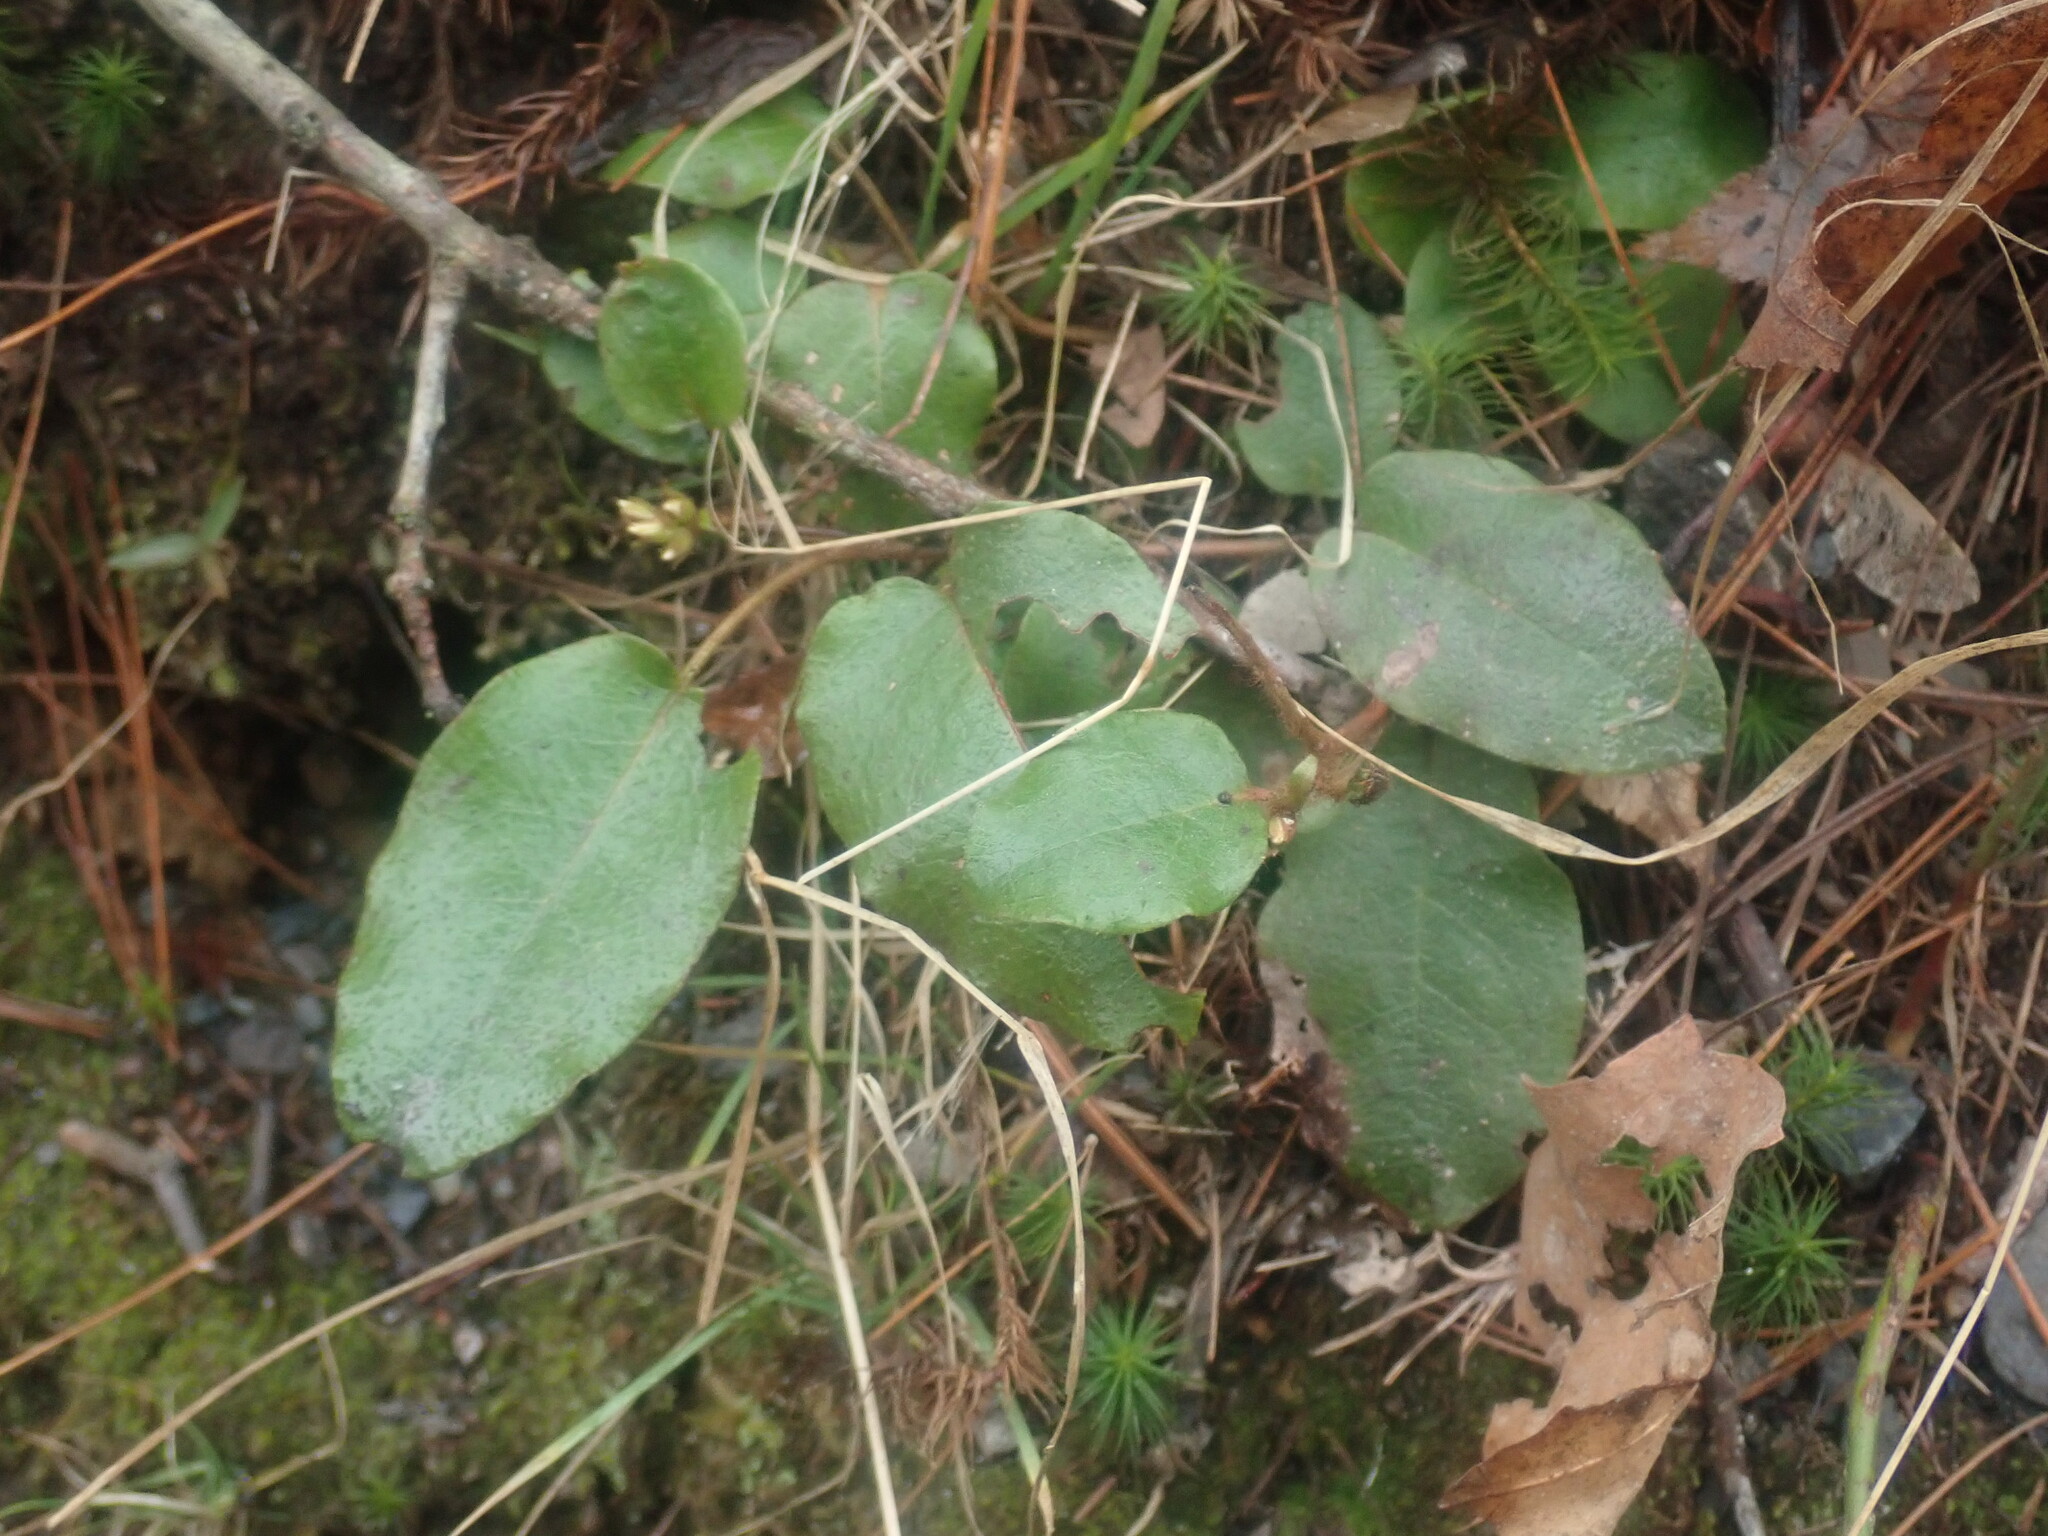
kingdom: Plantae
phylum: Tracheophyta
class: Magnoliopsida
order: Ericales
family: Ericaceae
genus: Epigaea
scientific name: Epigaea repens
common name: Gravelroot
